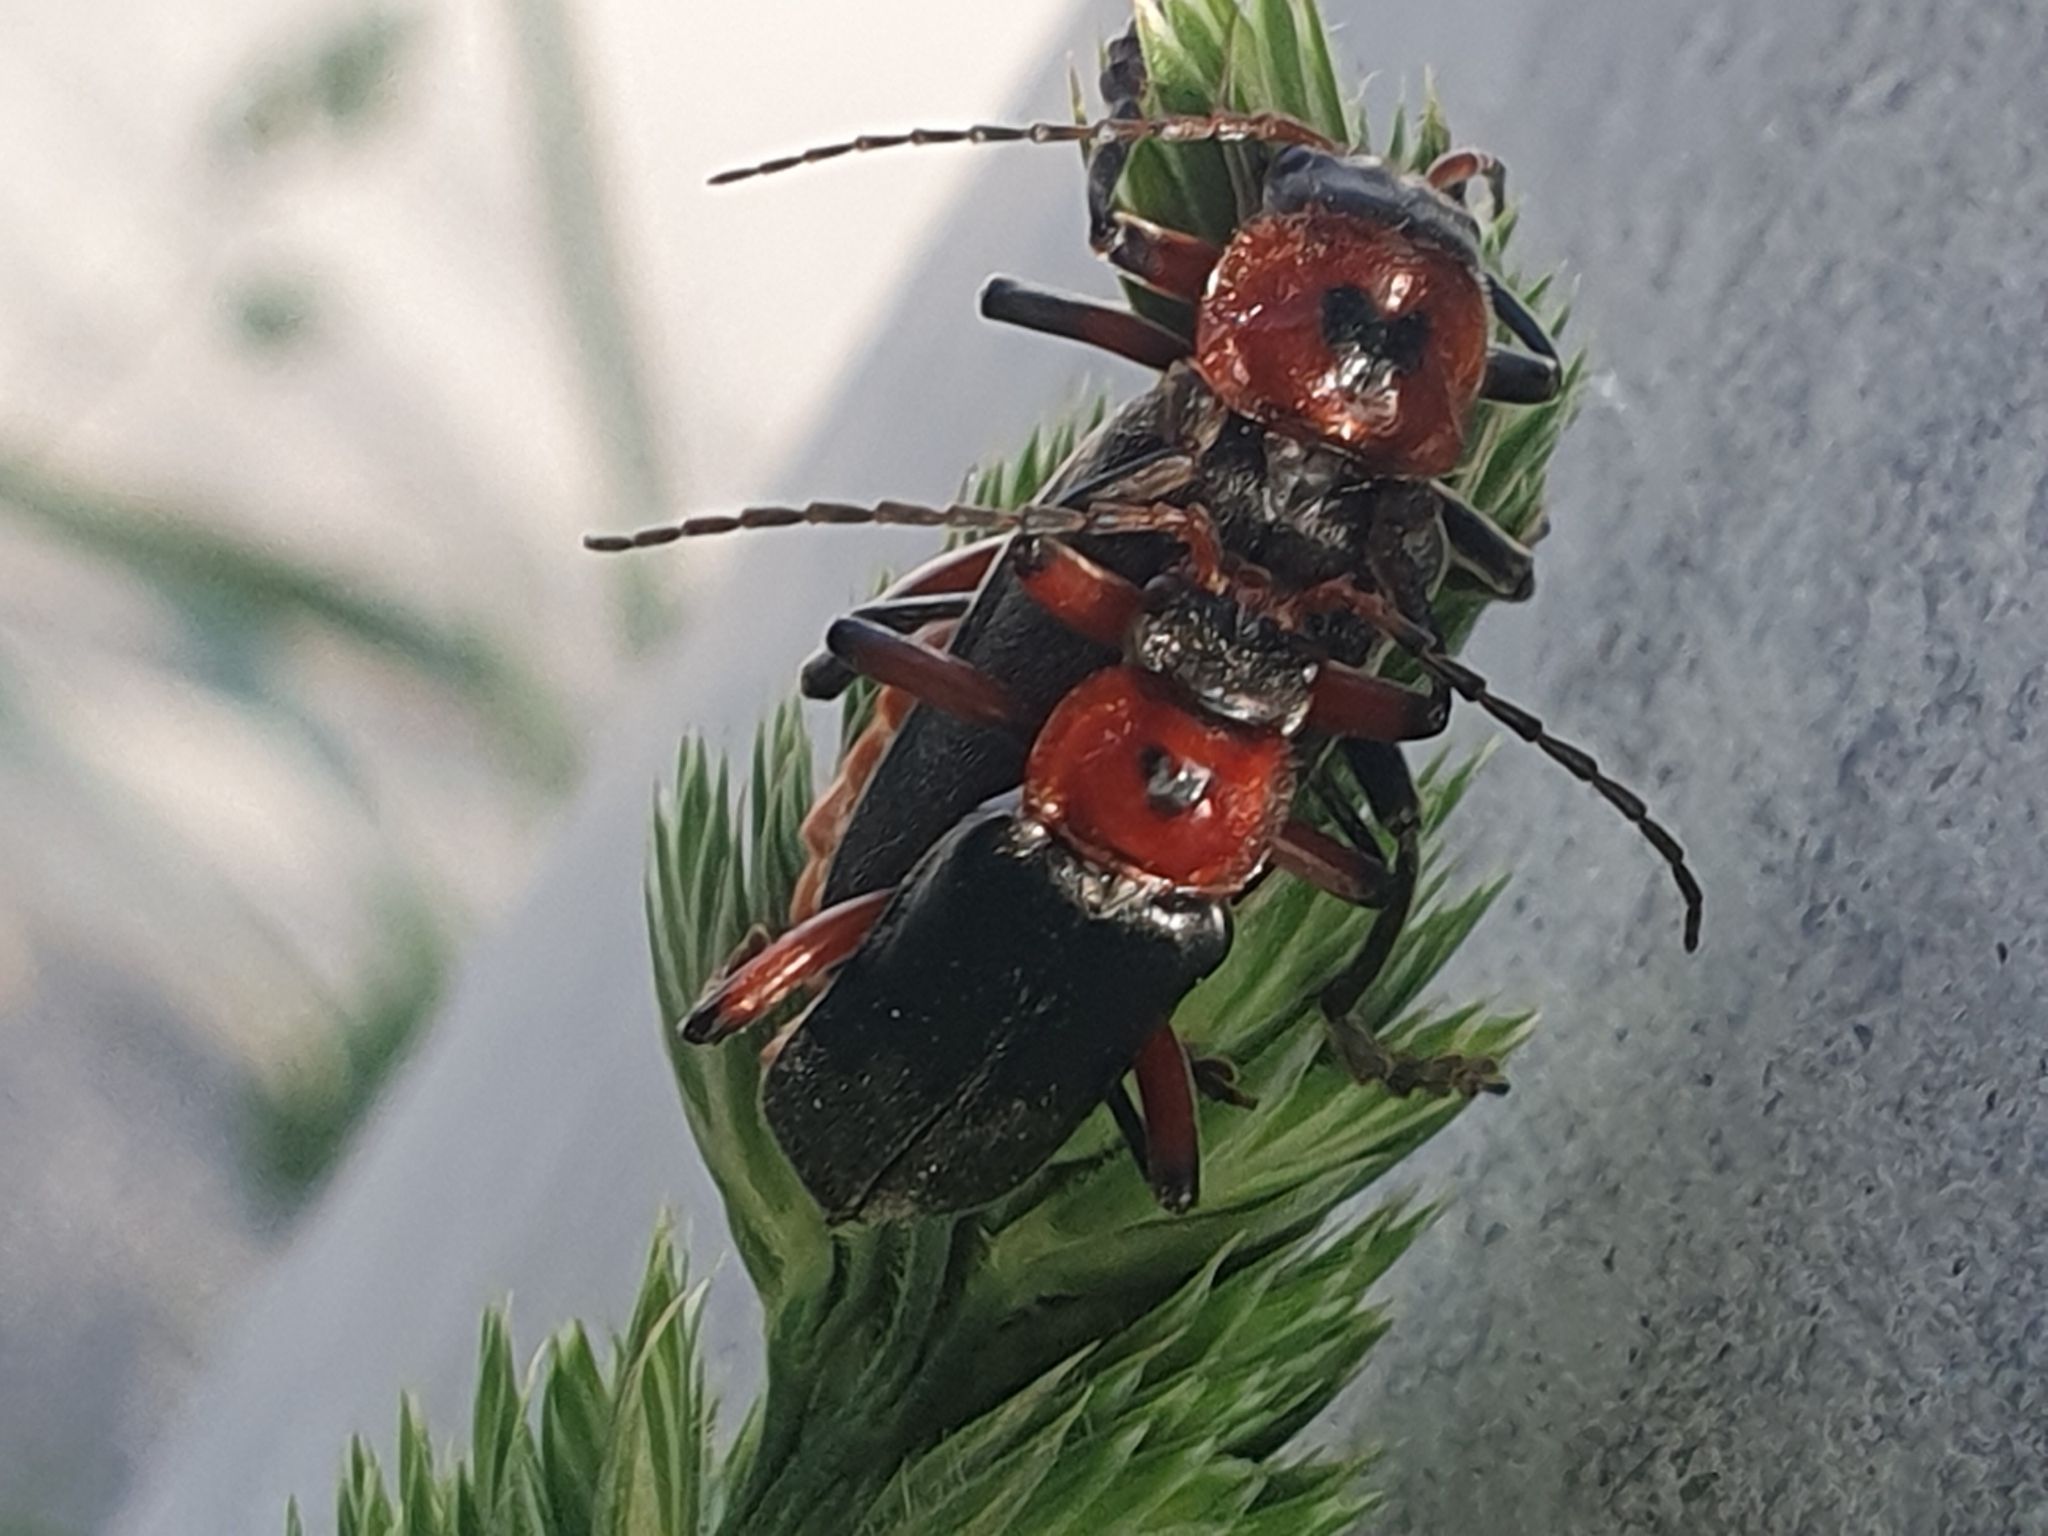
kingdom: Animalia
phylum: Arthropoda
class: Insecta
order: Coleoptera
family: Cantharidae
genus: Cantharis
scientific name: Cantharis rustica
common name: Soldier beetle
